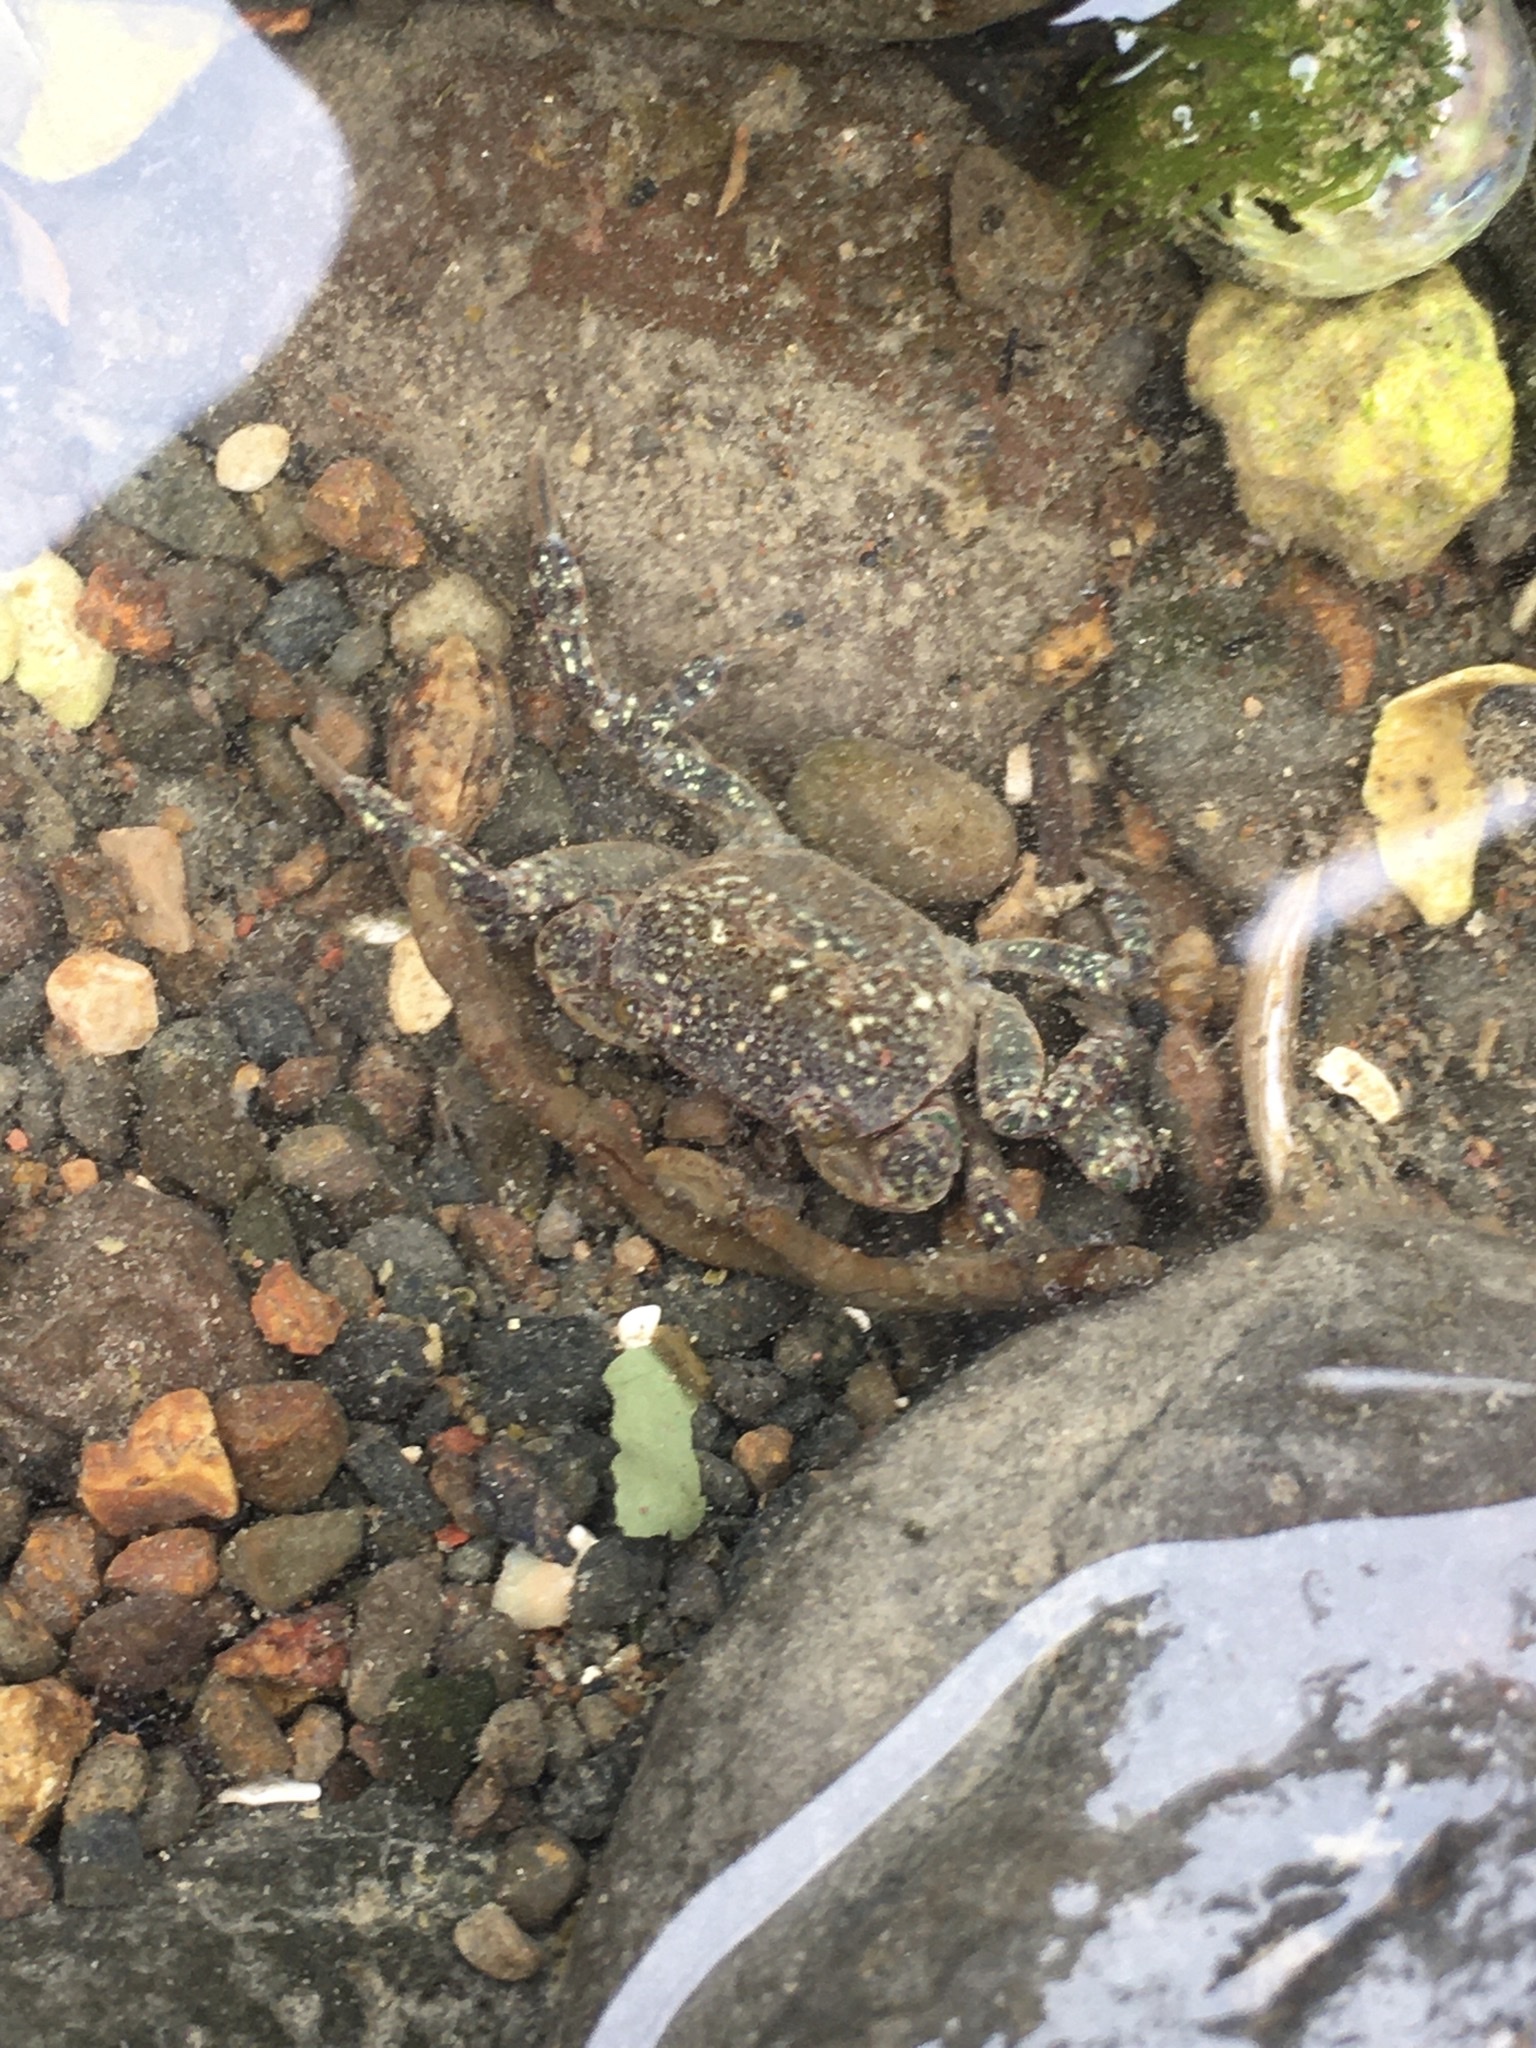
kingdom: Animalia
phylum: Arthropoda
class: Malacostraca
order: Decapoda
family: Varunidae
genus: Cyclograpsus
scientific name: Cyclograpsus lavauxi
